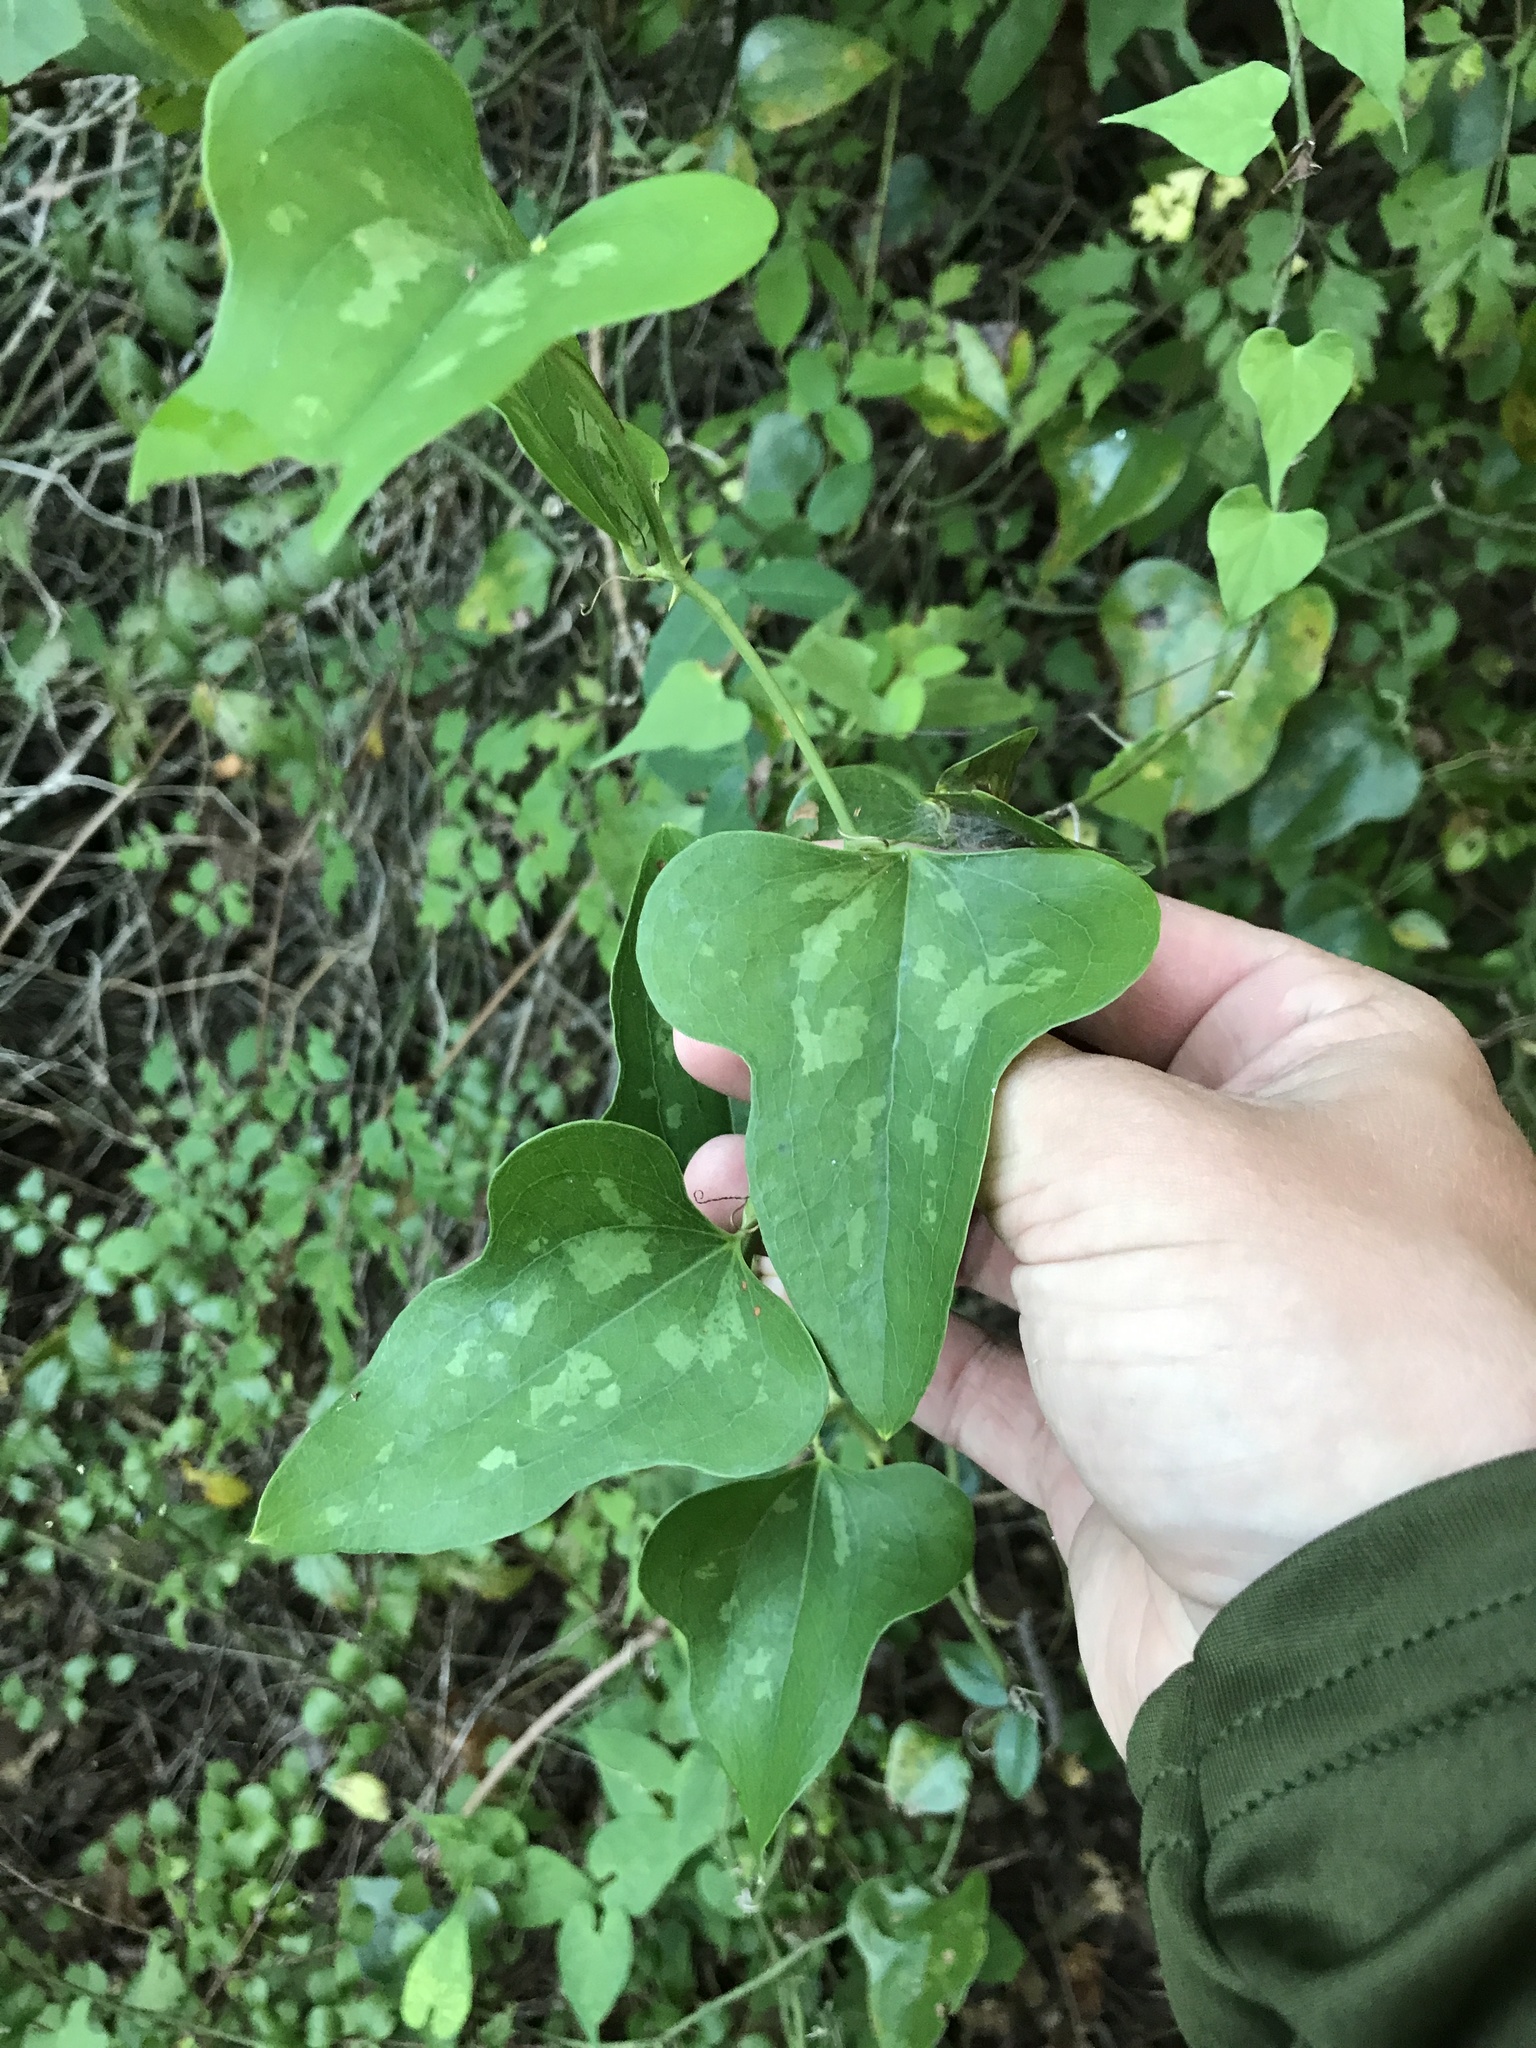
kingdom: Plantae
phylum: Tracheophyta
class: Liliopsida
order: Liliales
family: Smilacaceae
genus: Smilax
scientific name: Smilax bona-nox
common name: Catbrier
